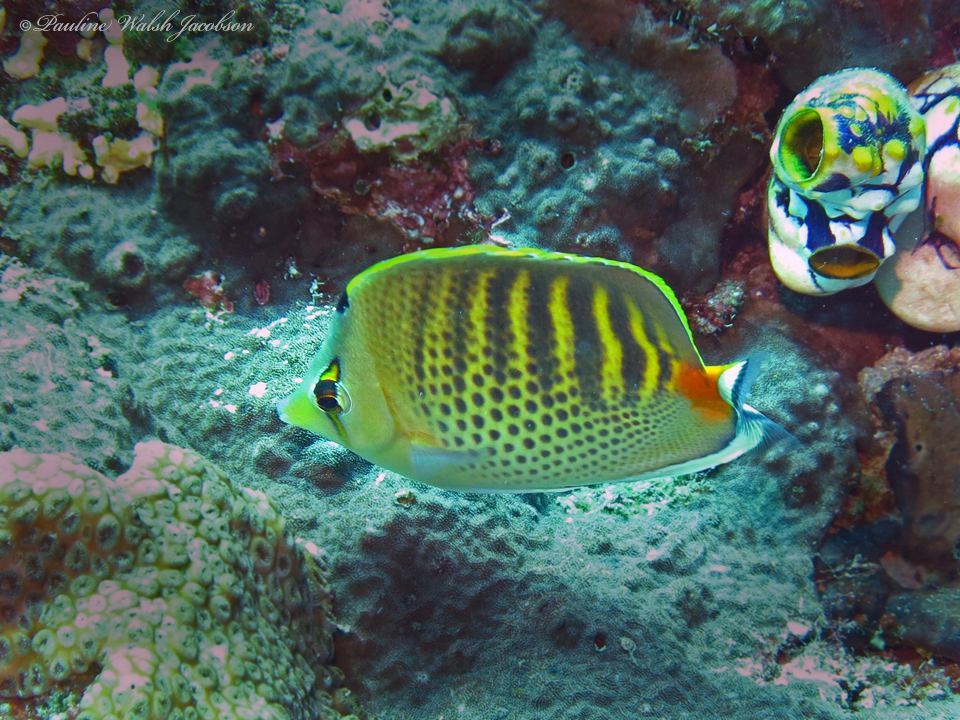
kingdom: Animalia
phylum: Chordata
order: Perciformes
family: Chaetodontidae
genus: Chaetodon
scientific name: Chaetodon punctatofasciatus
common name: Spot-banded butterflyfish
